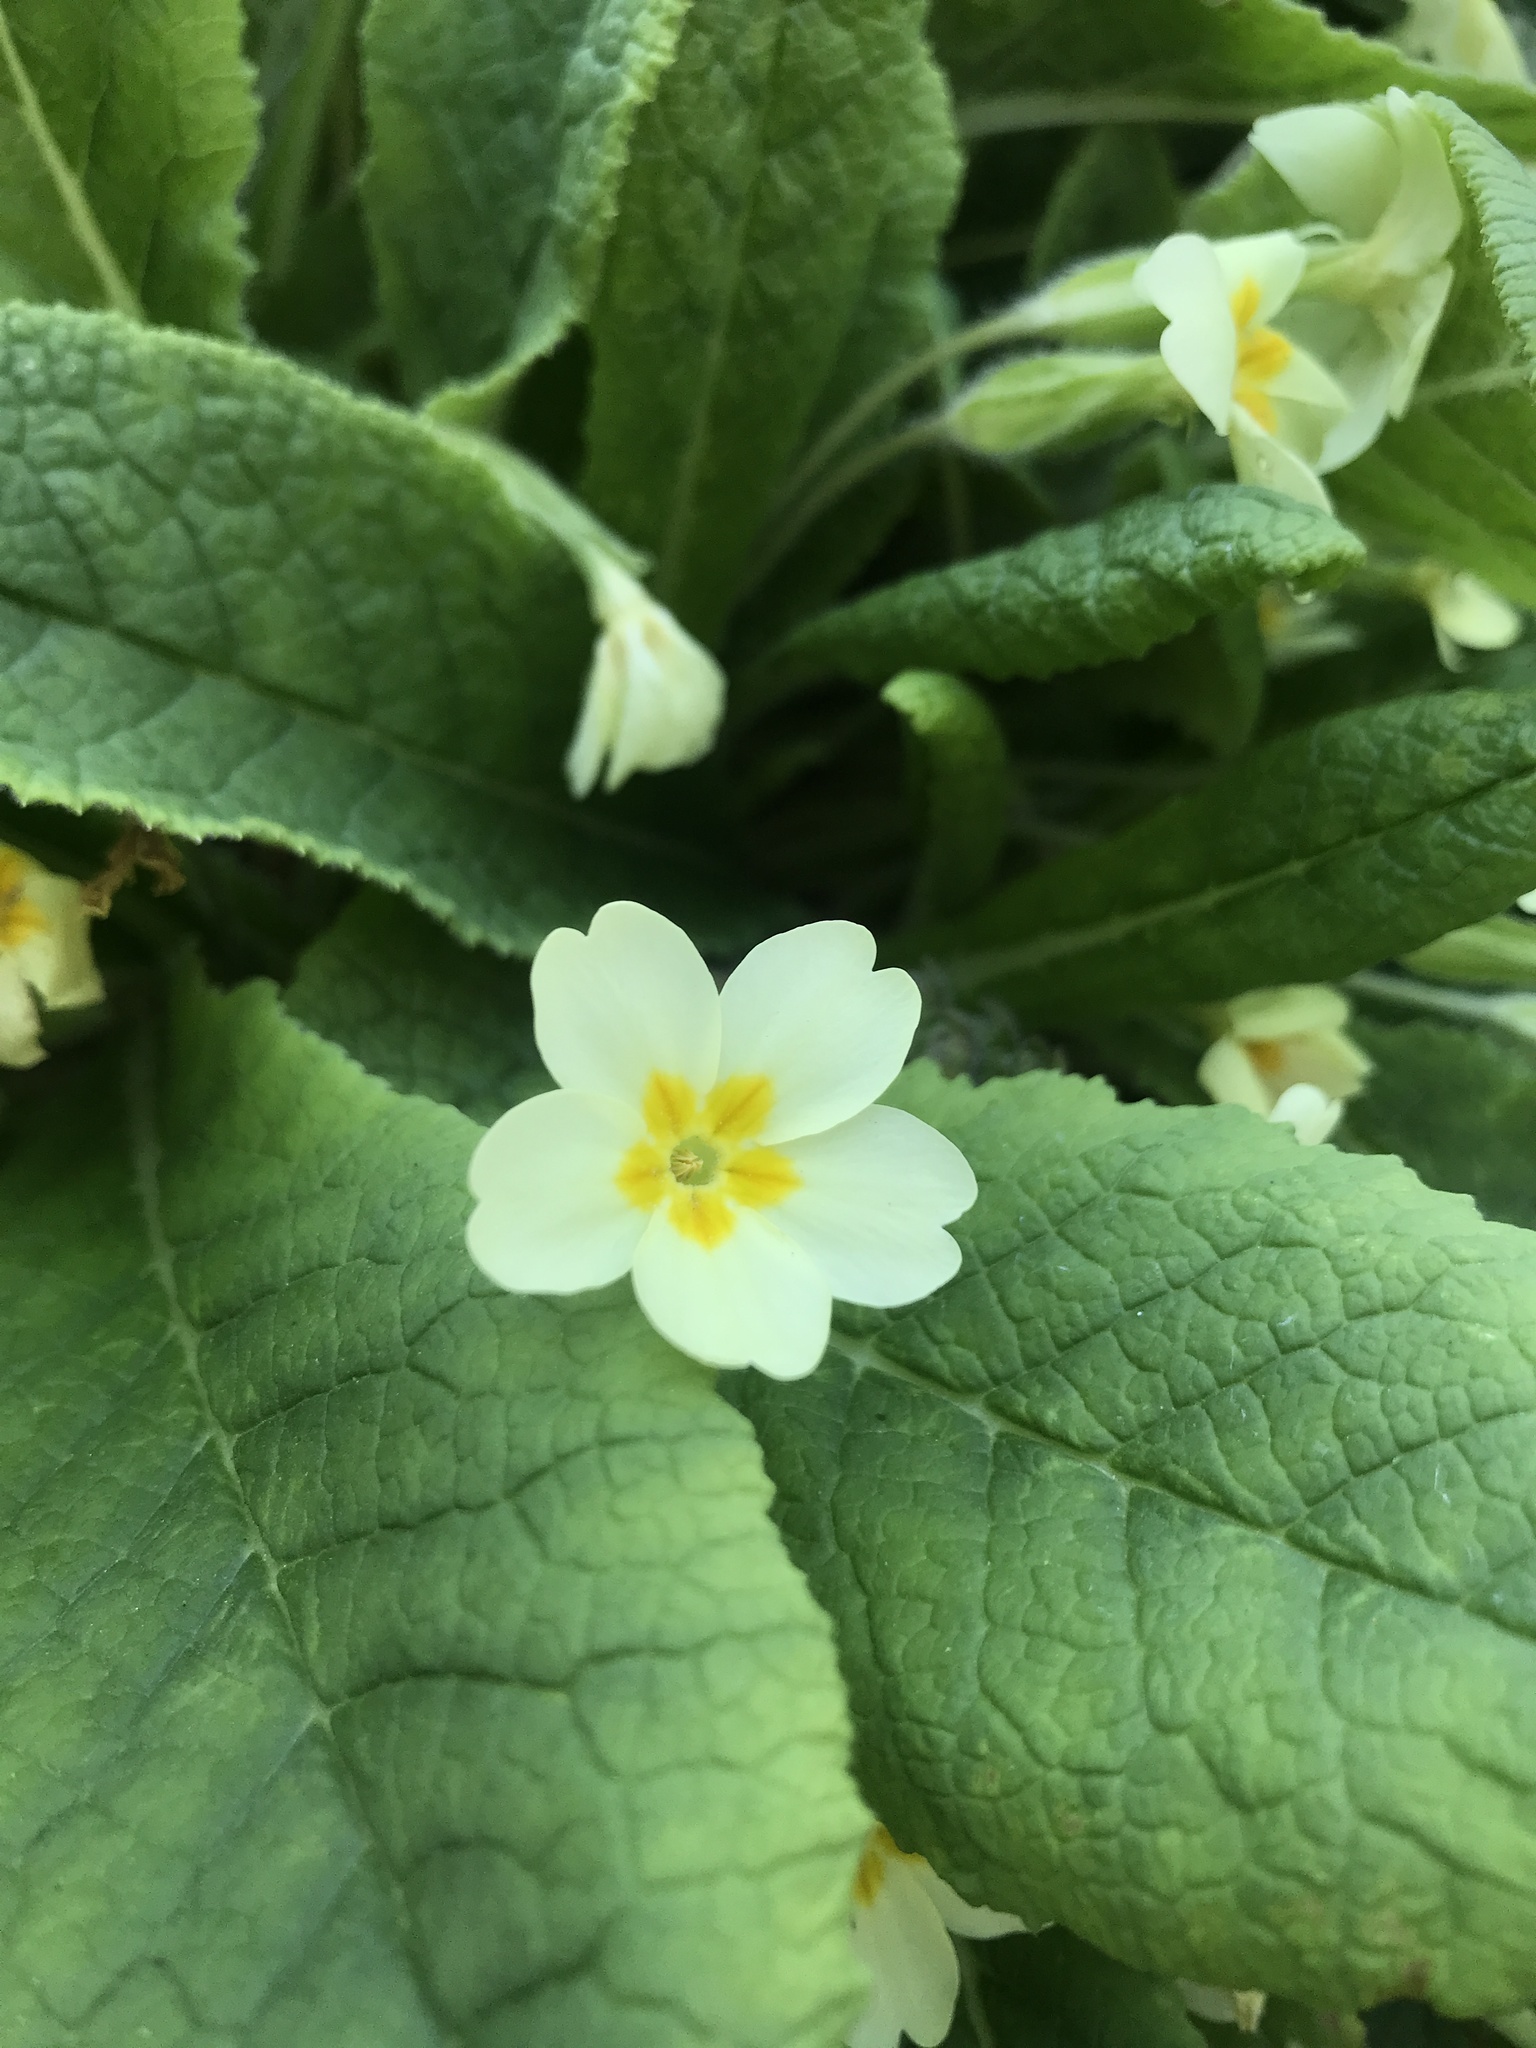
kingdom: Plantae
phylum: Tracheophyta
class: Magnoliopsida
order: Ericales
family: Primulaceae
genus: Primula
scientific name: Primula vulgaris
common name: Primrose
